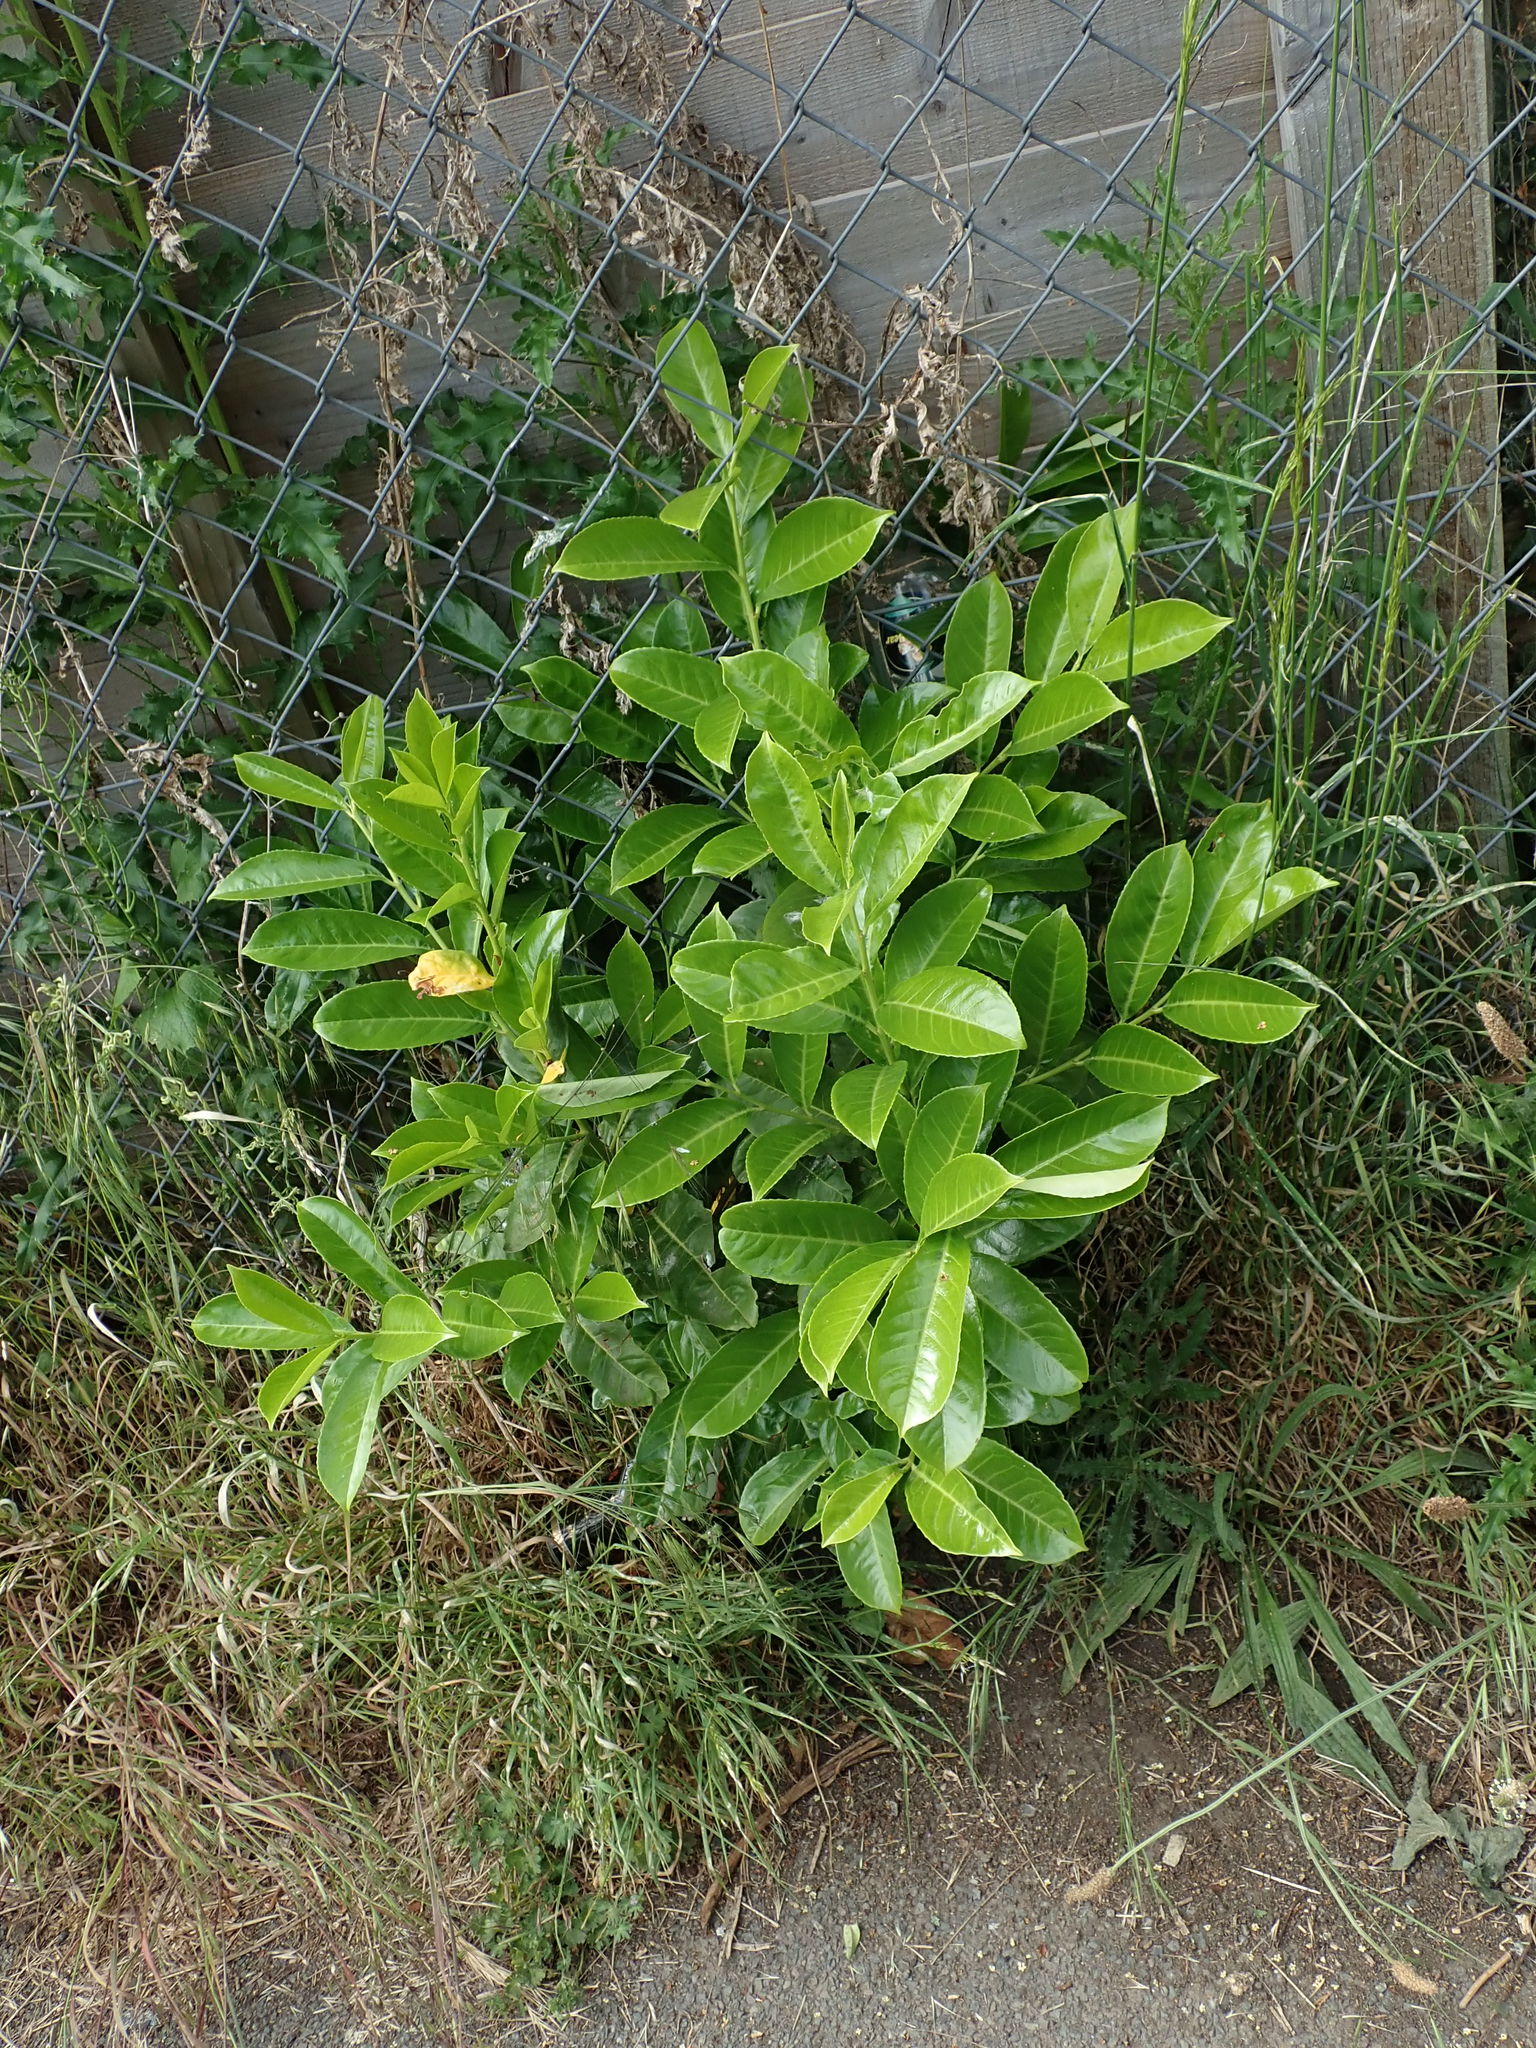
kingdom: Plantae
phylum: Tracheophyta
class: Magnoliopsida
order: Rosales
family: Rosaceae
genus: Prunus
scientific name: Prunus laurocerasus
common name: Cherry laurel
